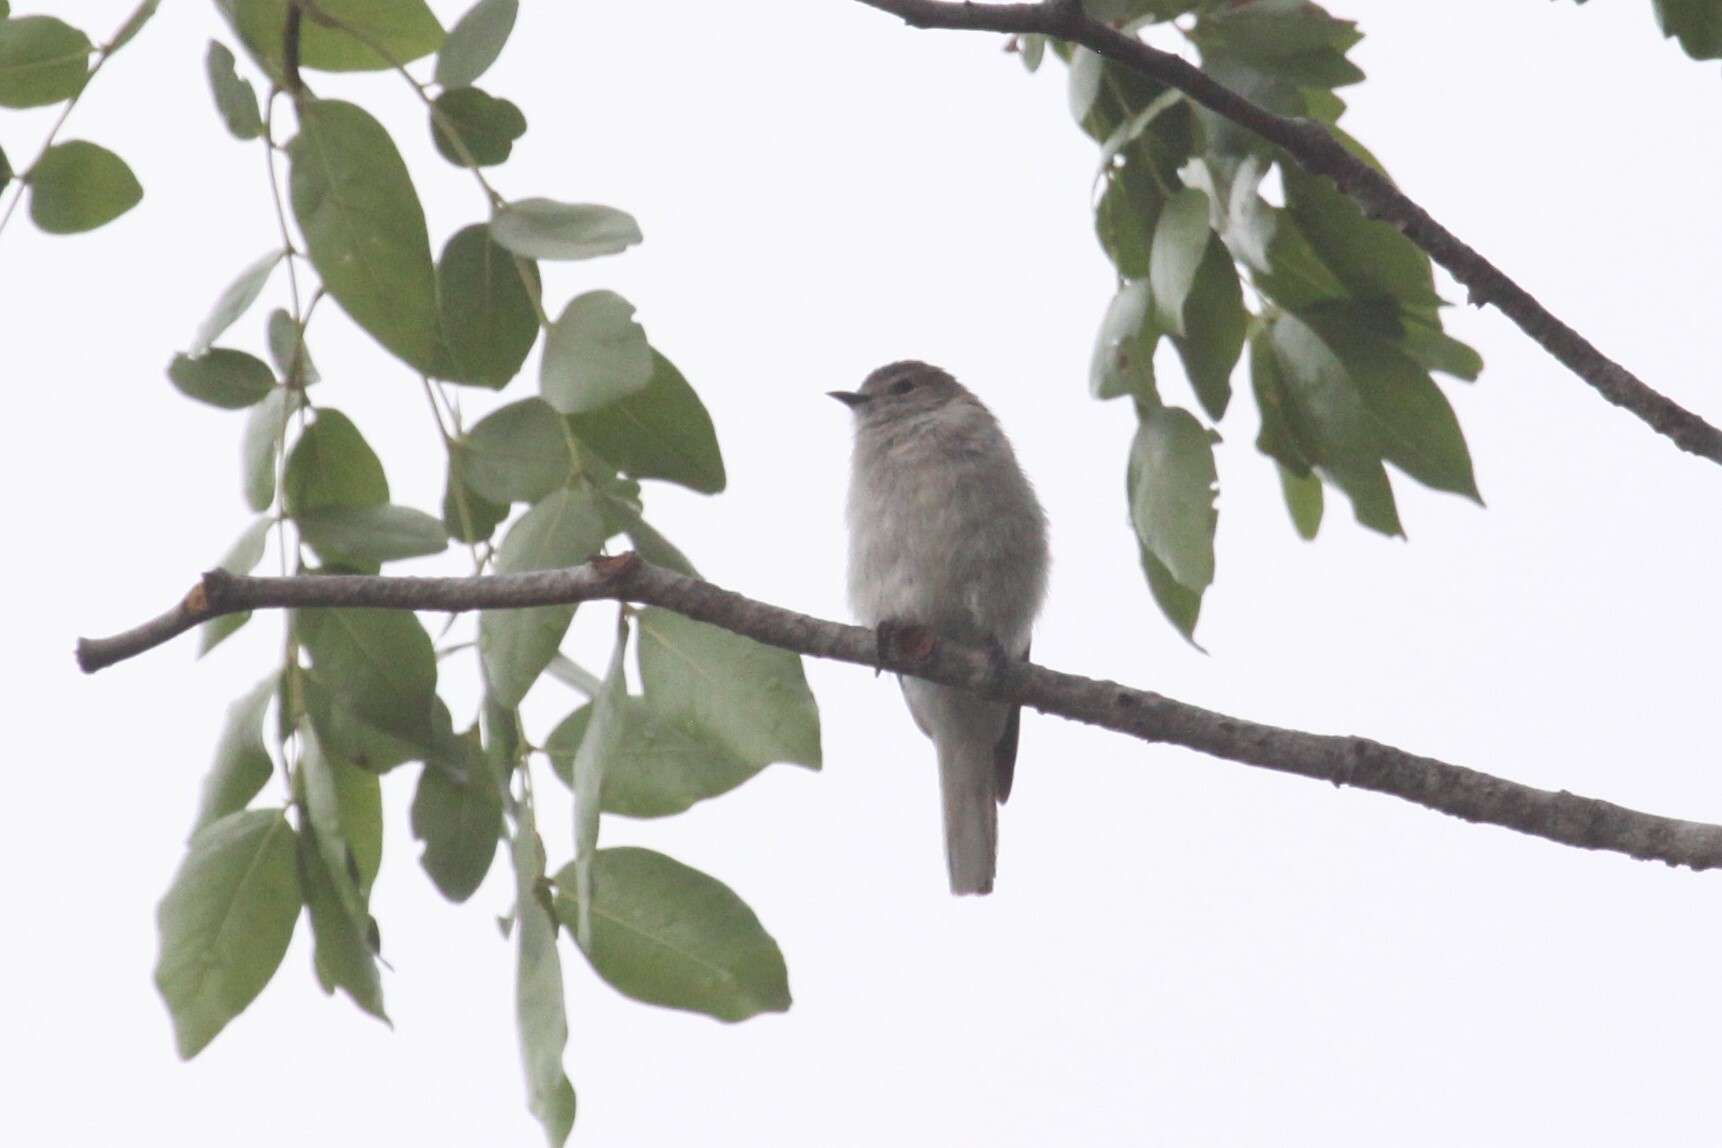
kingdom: Animalia
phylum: Chordata
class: Aves
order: Piciformes
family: Indicatoridae
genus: Prodotiscus
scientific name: Prodotiscus regulus
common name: Brown-backed honeybird
